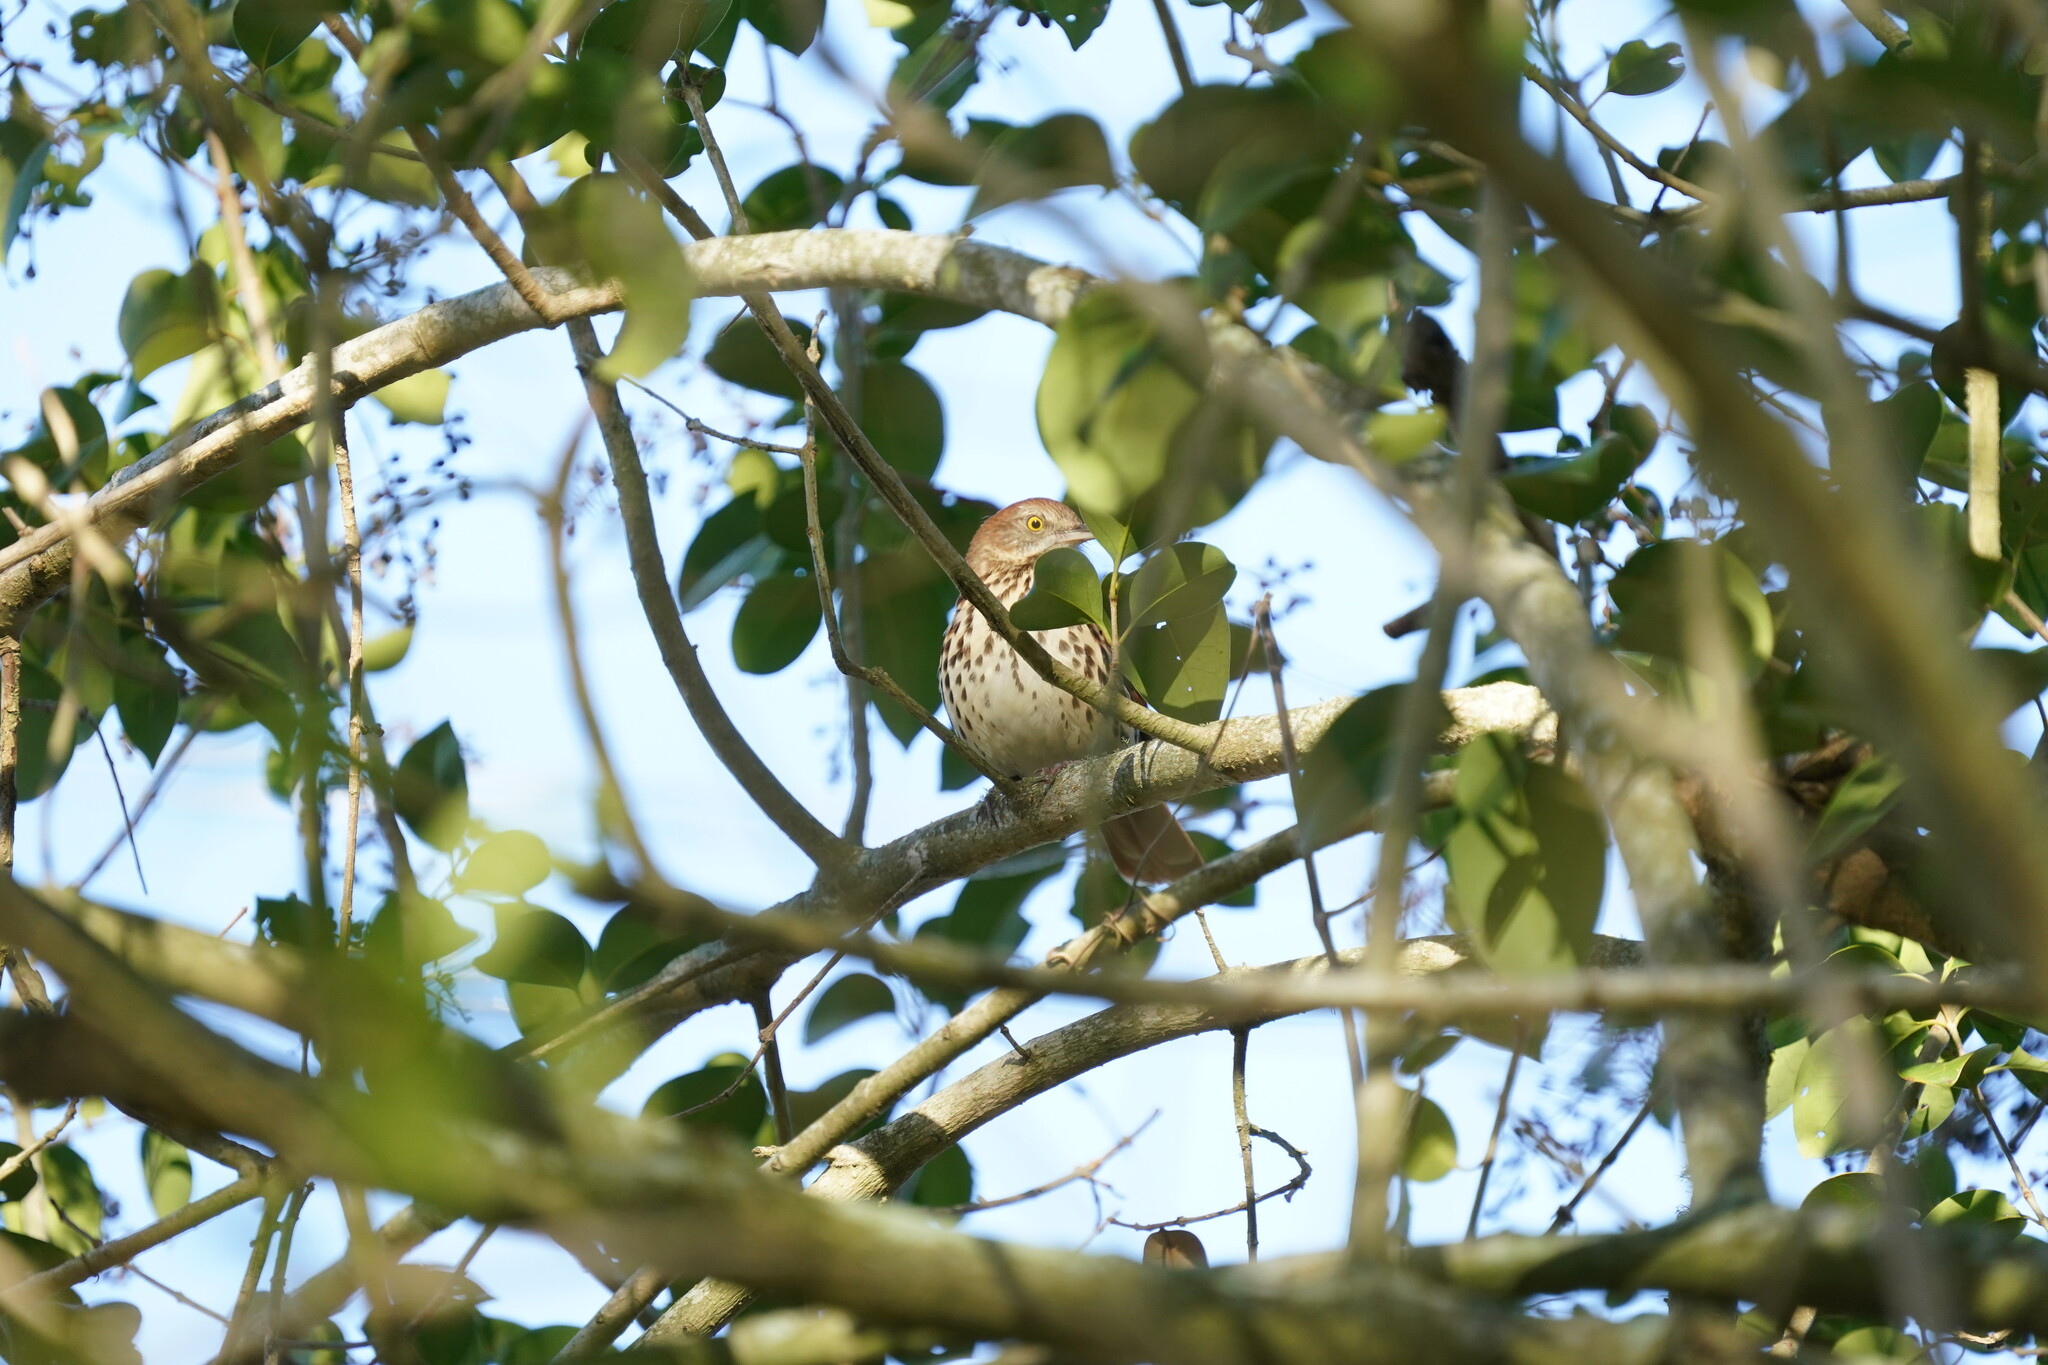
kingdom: Animalia
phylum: Chordata
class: Aves
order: Passeriformes
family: Mimidae
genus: Toxostoma
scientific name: Toxostoma rufum
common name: Brown thrasher
